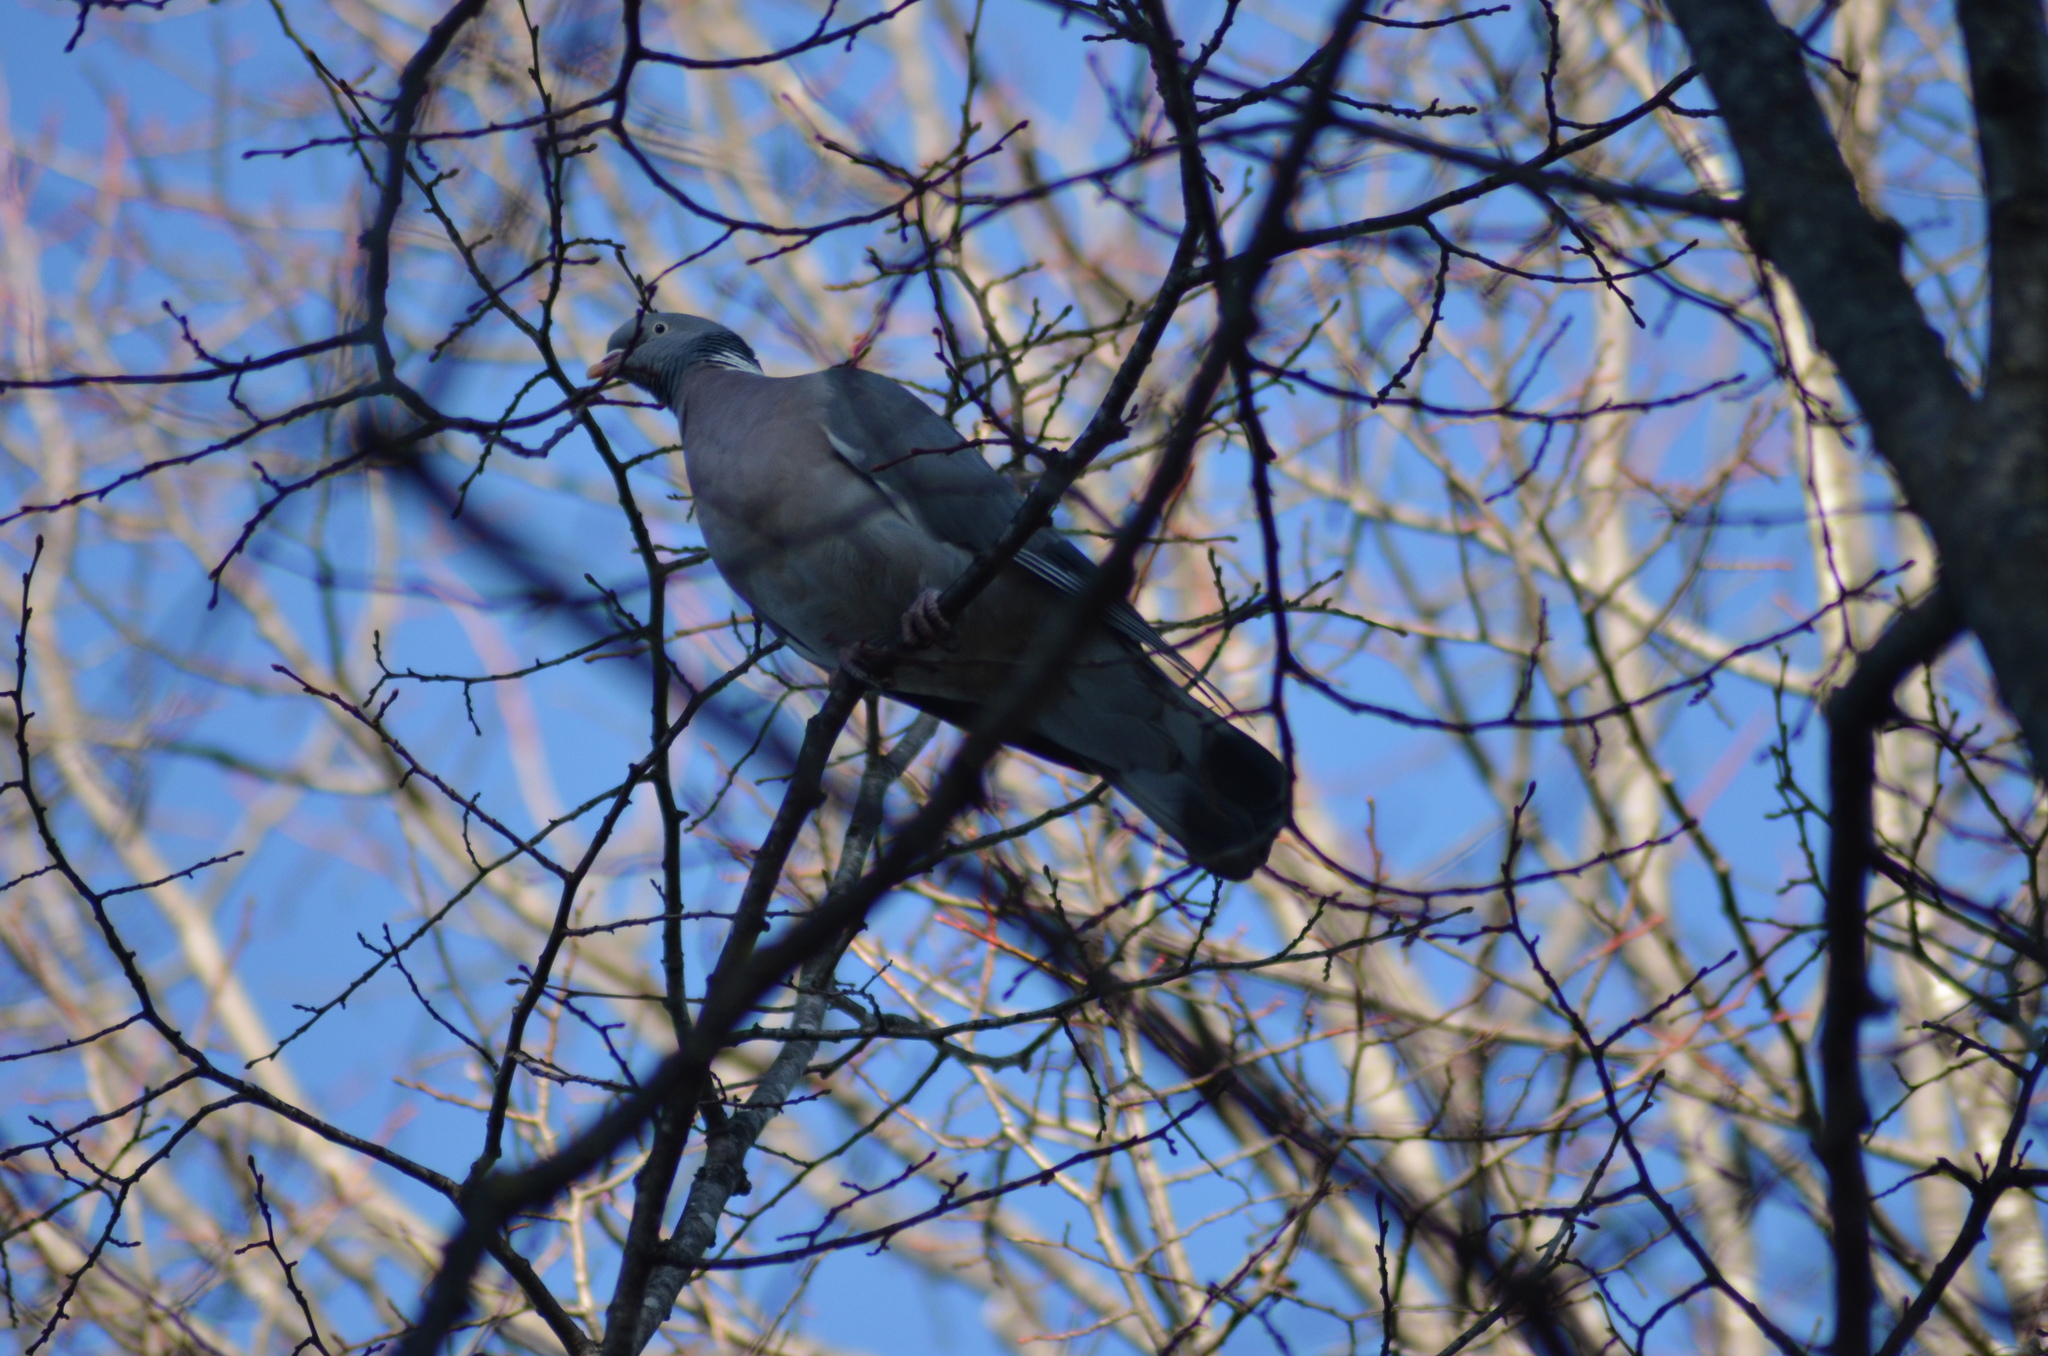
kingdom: Animalia
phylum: Chordata
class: Aves
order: Columbiformes
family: Columbidae
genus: Columba
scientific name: Columba palumbus
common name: Common wood pigeon
